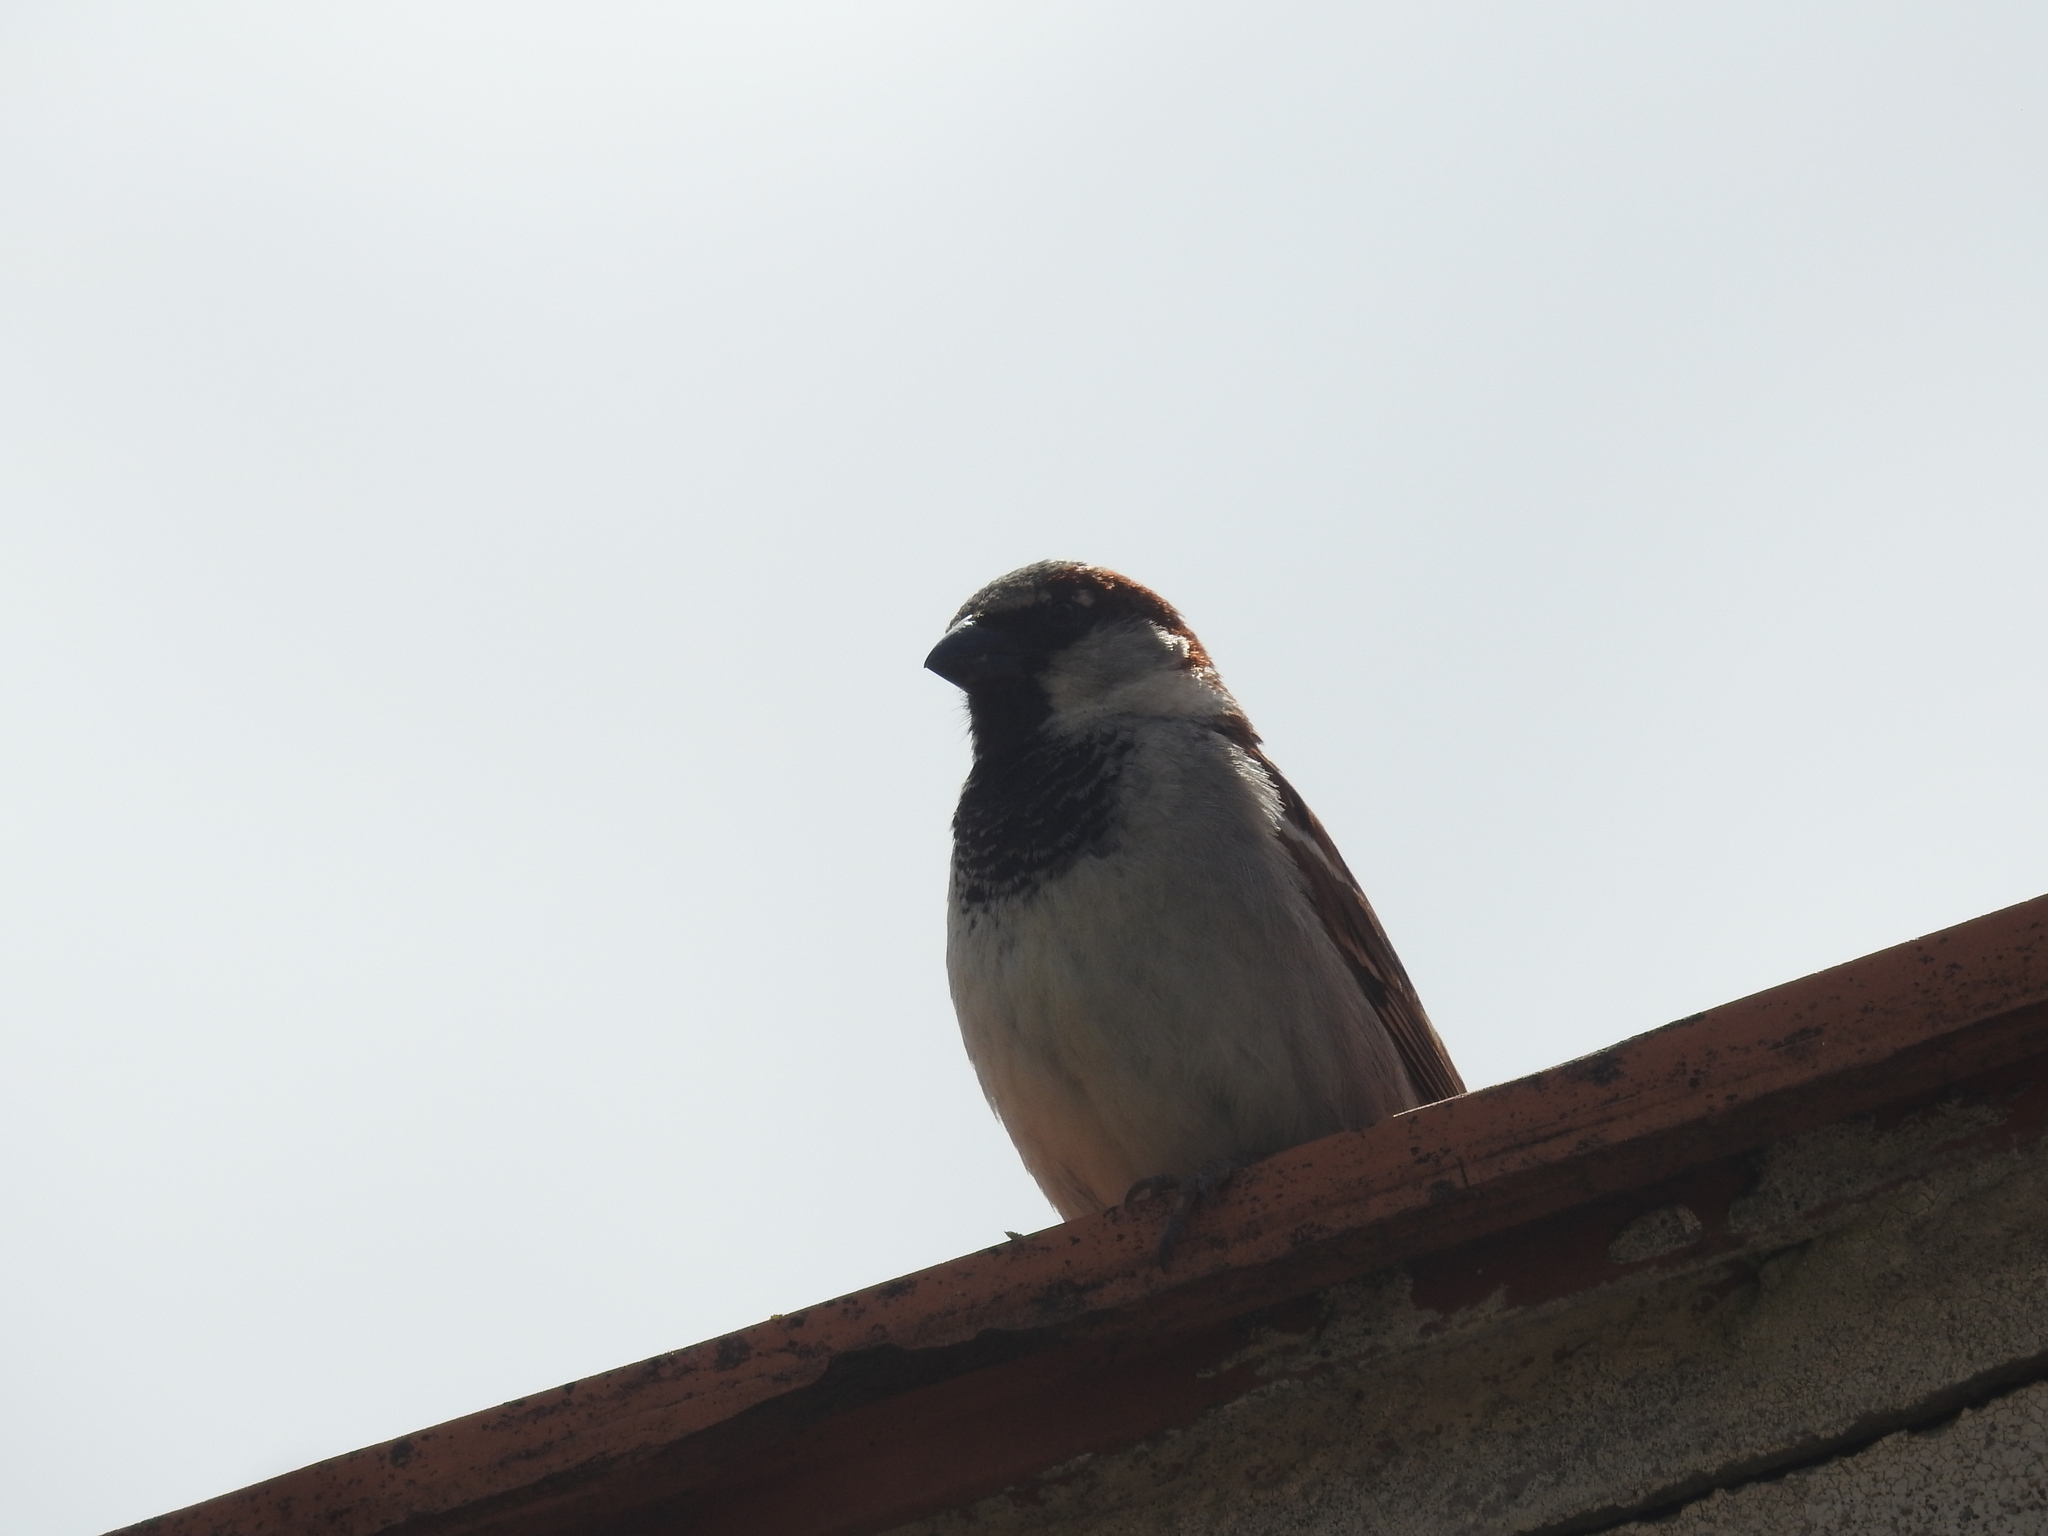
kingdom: Animalia
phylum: Chordata
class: Aves
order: Passeriformes
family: Passeridae
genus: Passer
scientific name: Passer domesticus
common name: House sparrow
